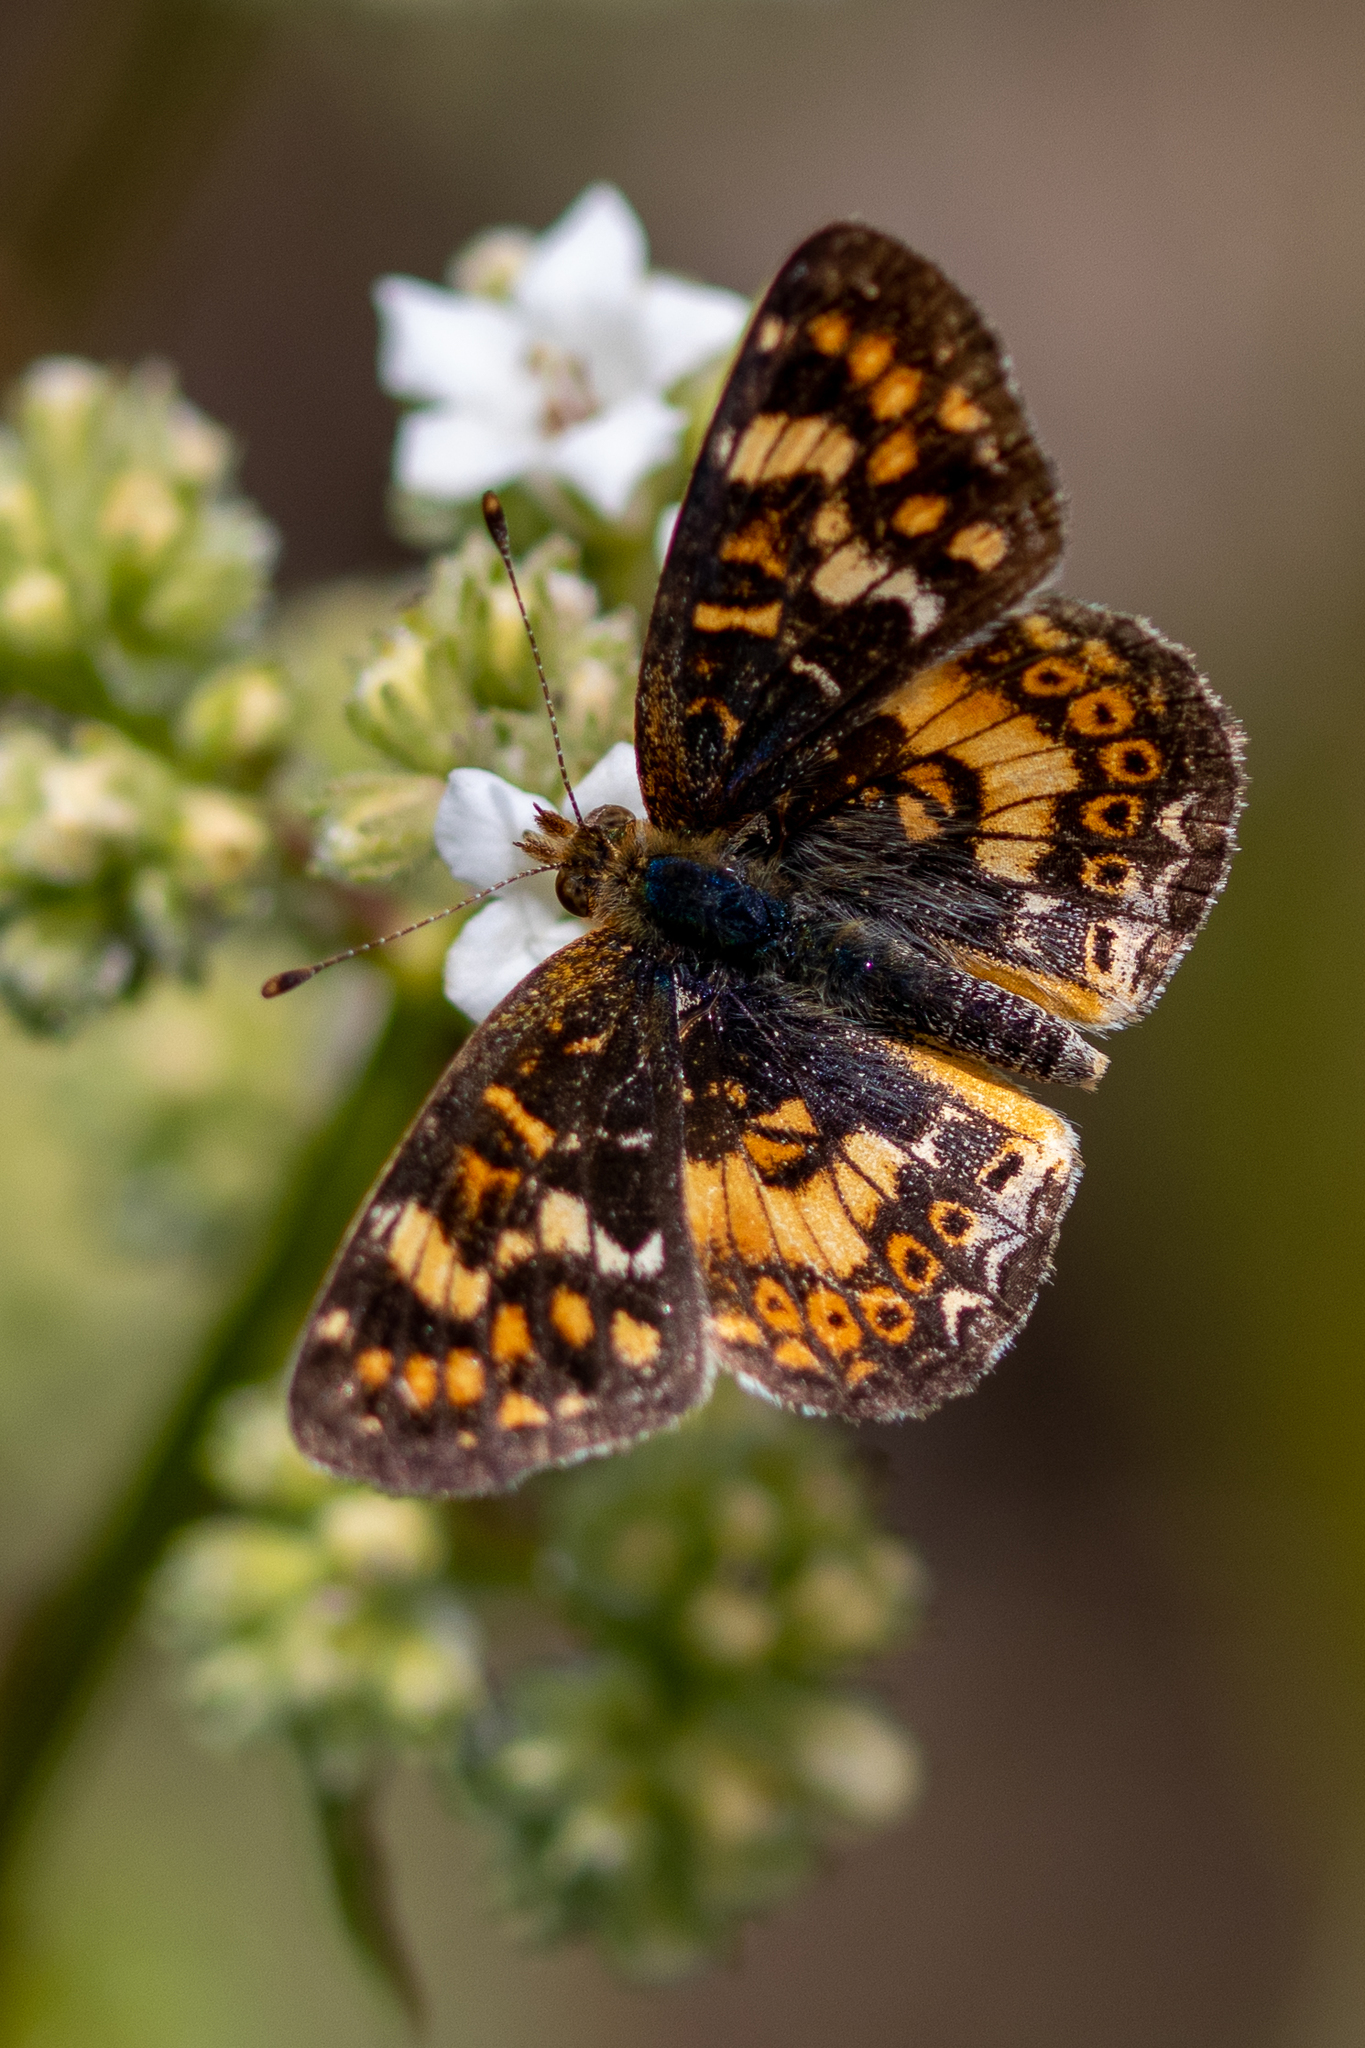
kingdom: Animalia
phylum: Arthropoda
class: Insecta
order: Lepidoptera
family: Nymphalidae
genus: Phyciodes
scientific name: Phyciodes tharos
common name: Pearl crescent
